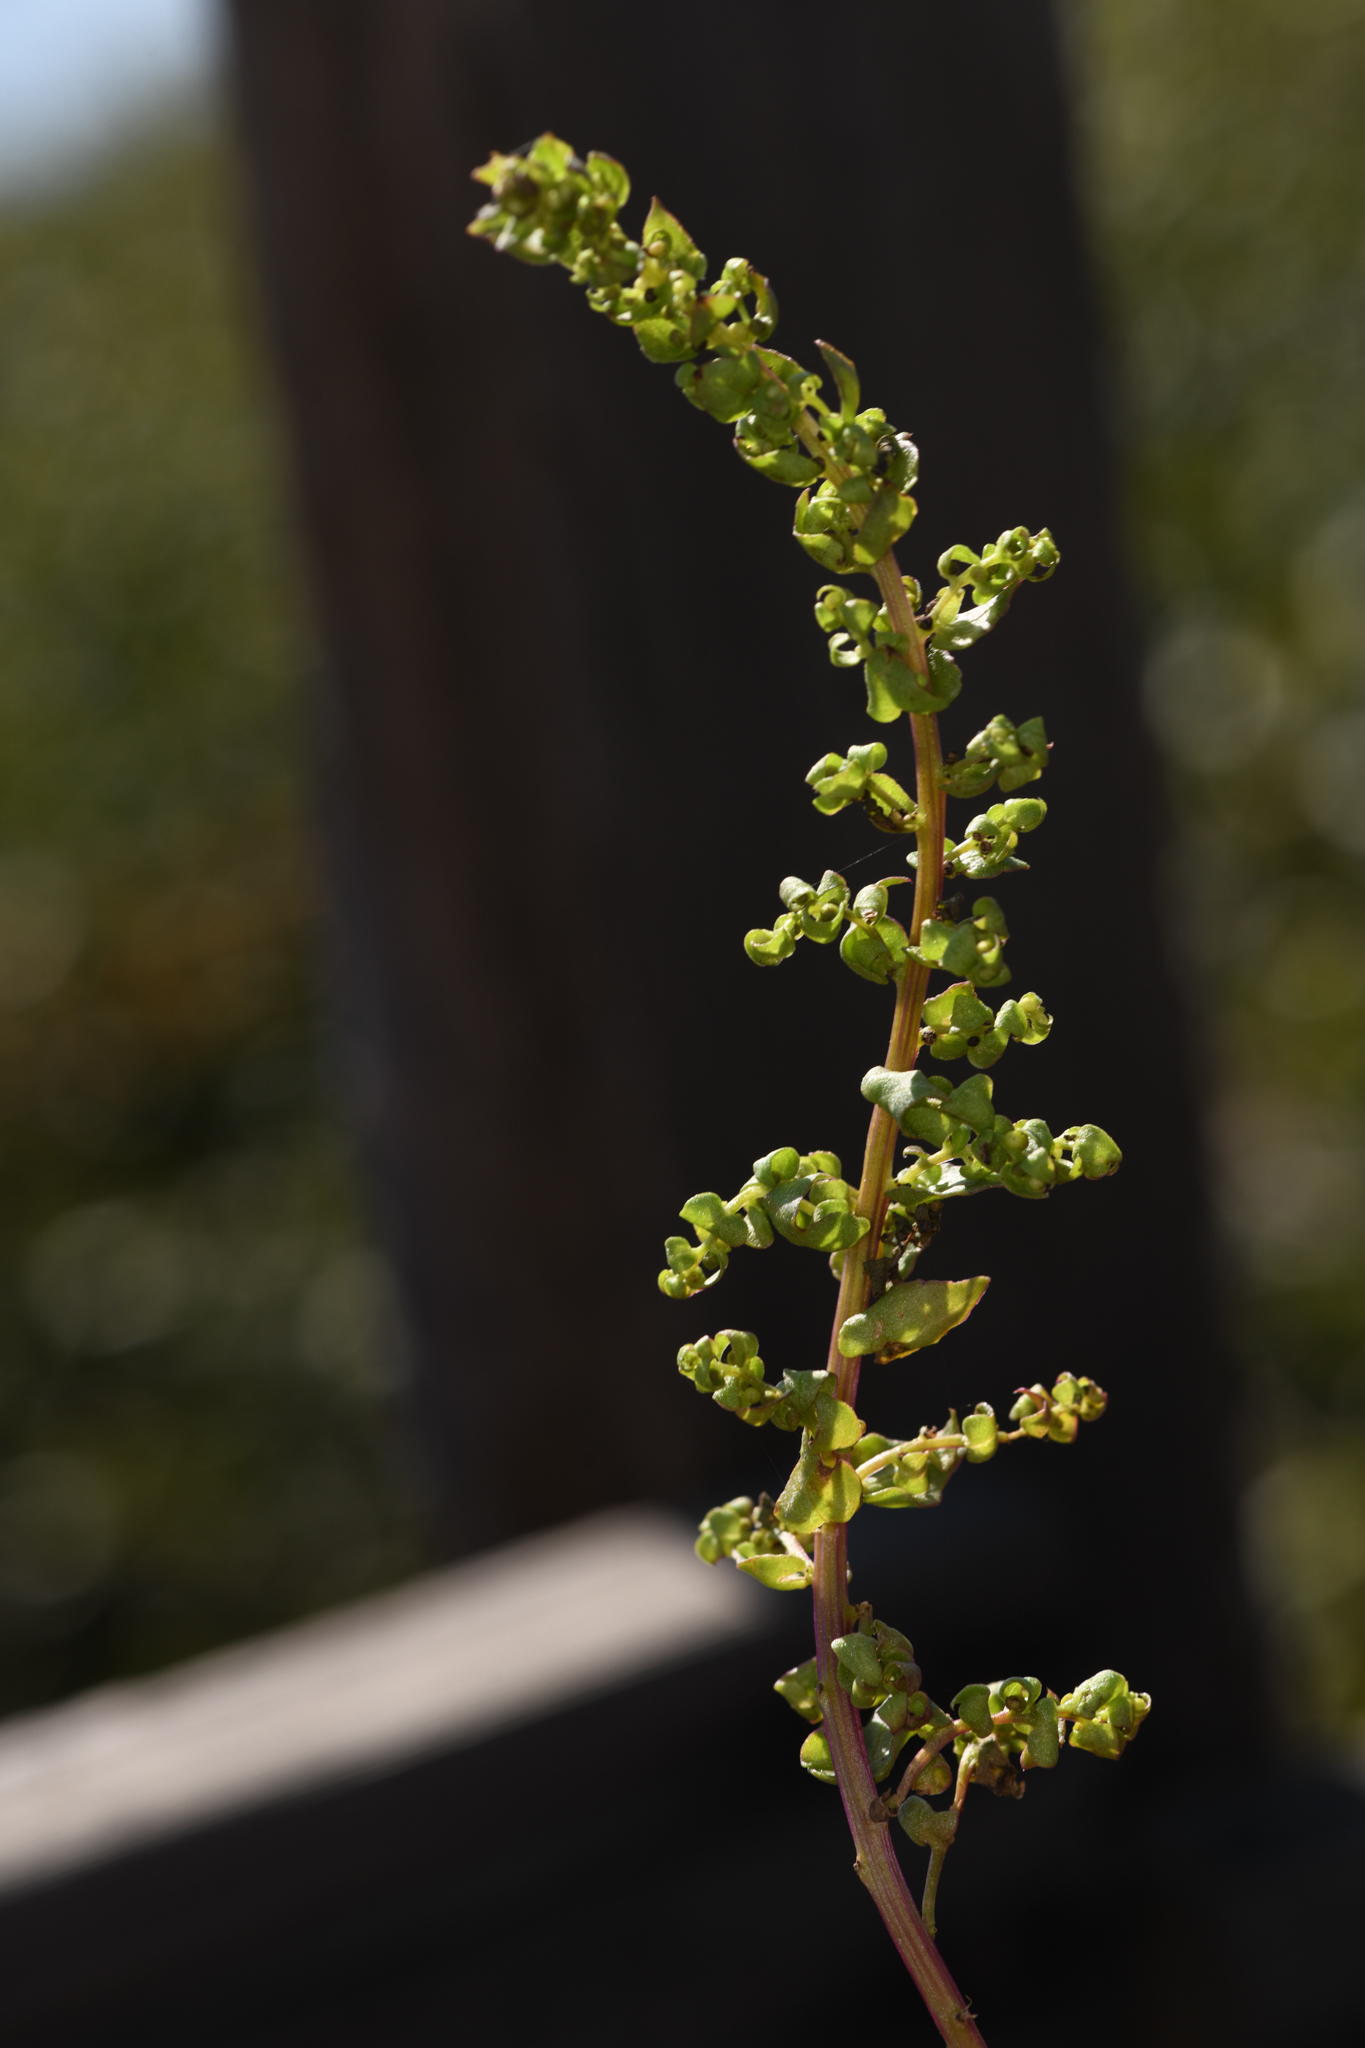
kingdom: Plantae
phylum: Tracheophyta
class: Magnoliopsida
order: Caryophyllales
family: Amaranthaceae
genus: Aphanisma
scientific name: Aphanisma blitoides
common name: Aphanisma
